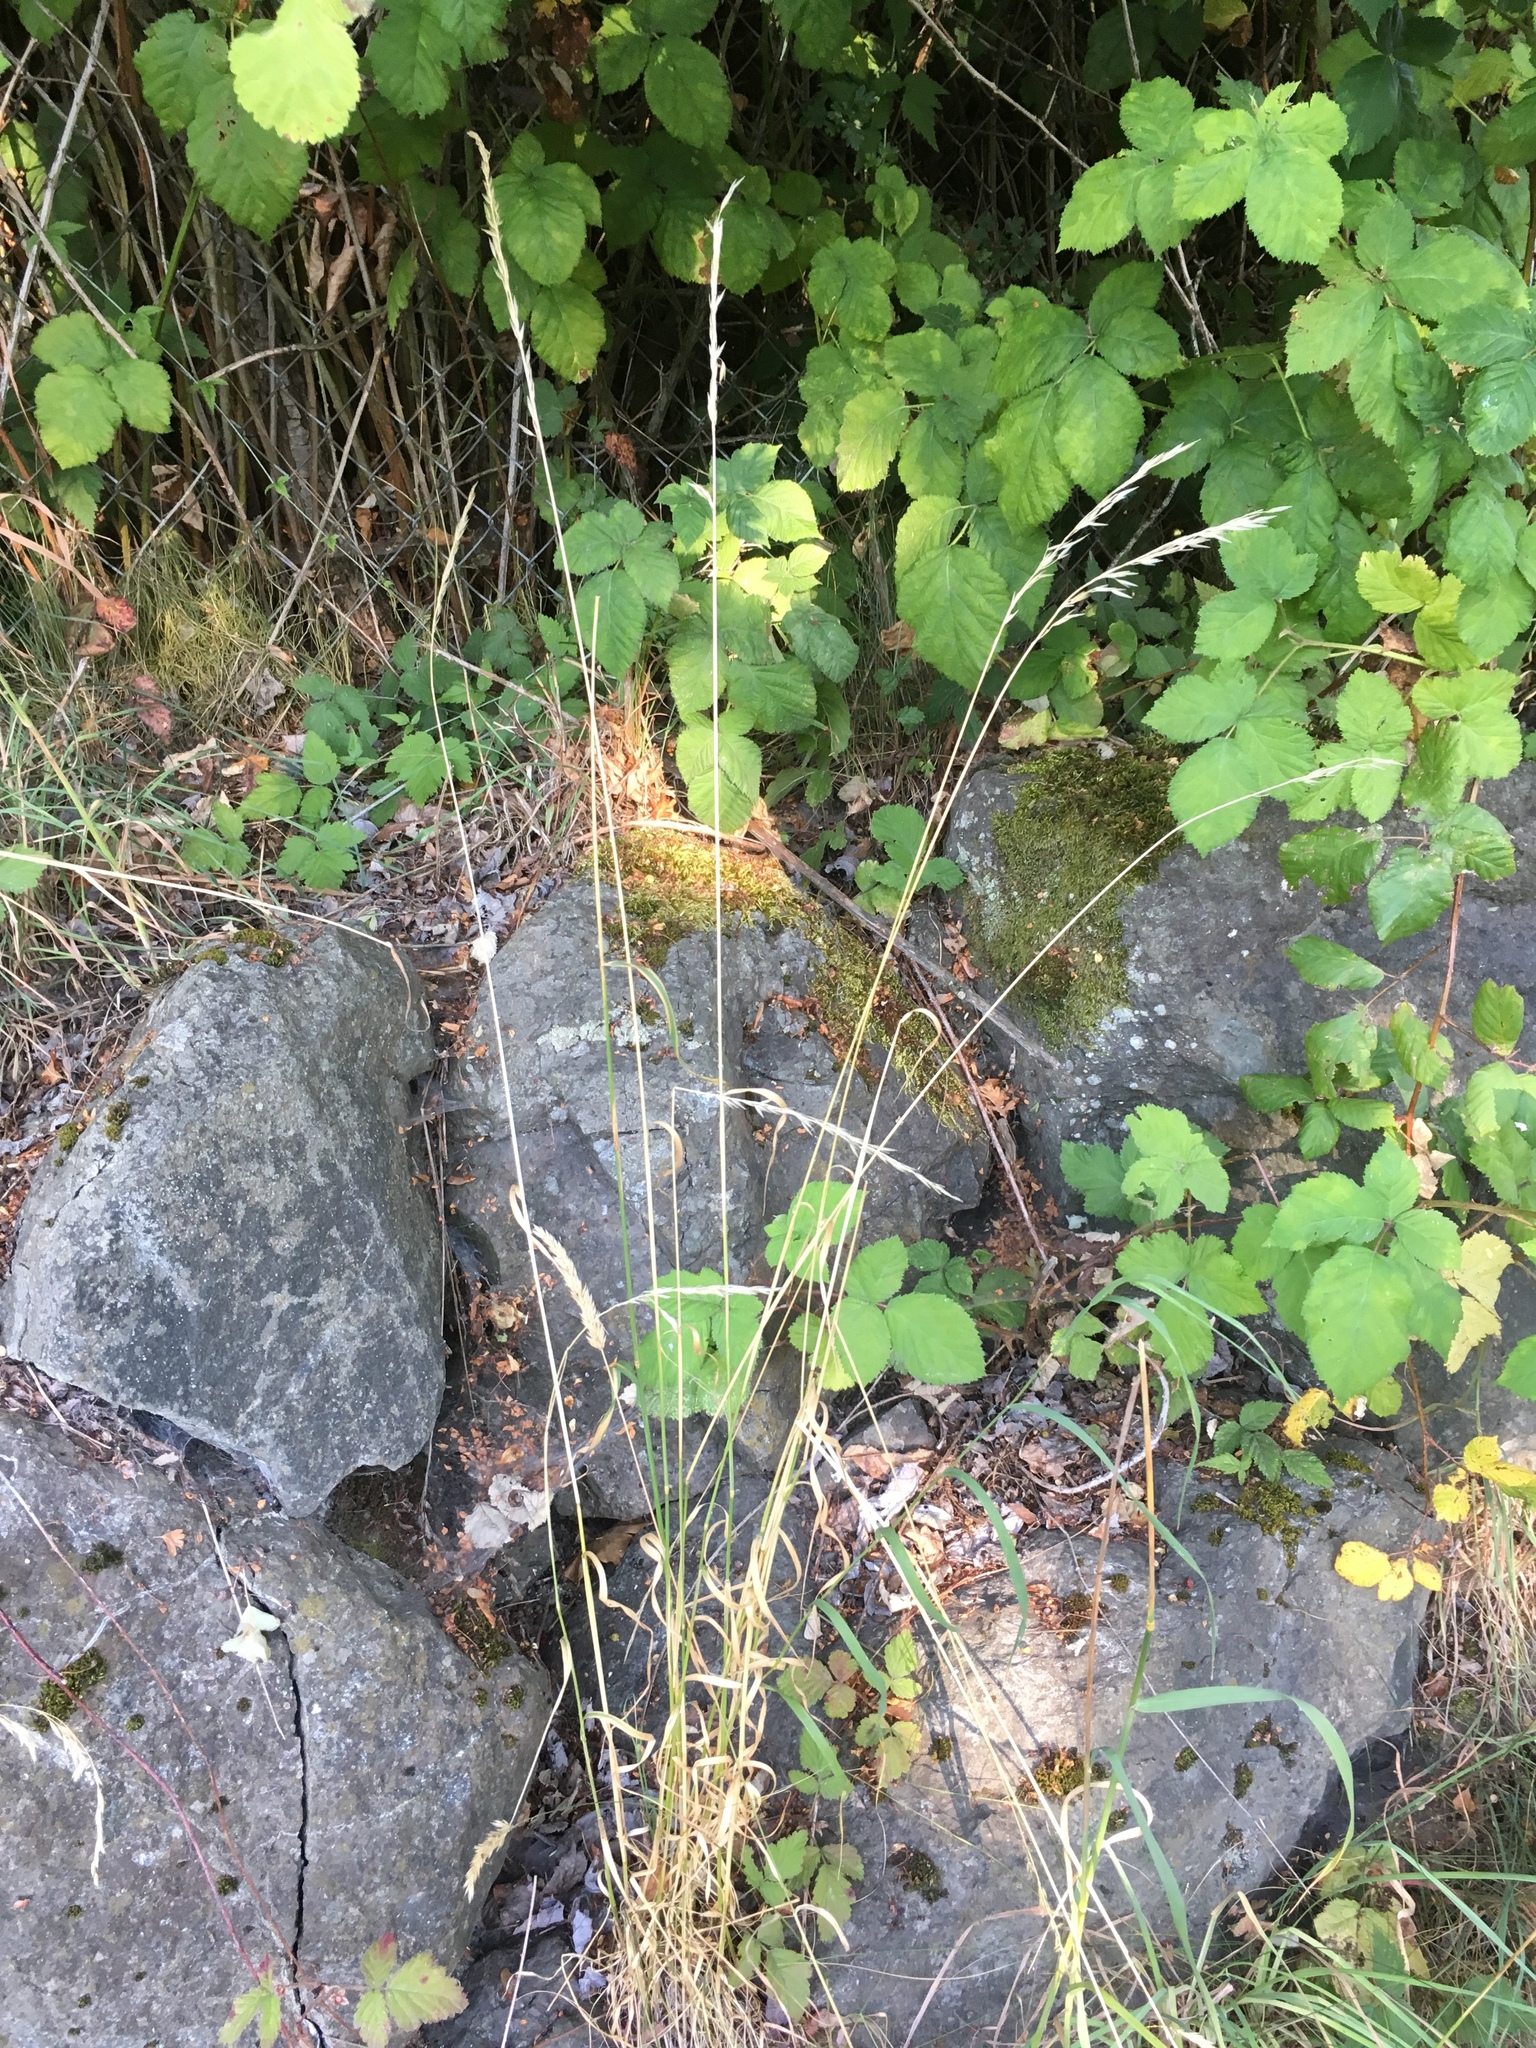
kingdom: Plantae
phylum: Tracheophyta
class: Liliopsida
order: Poales
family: Poaceae
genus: Arrhenatherum
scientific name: Arrhenatherum elatius
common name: Tall oatgrass
